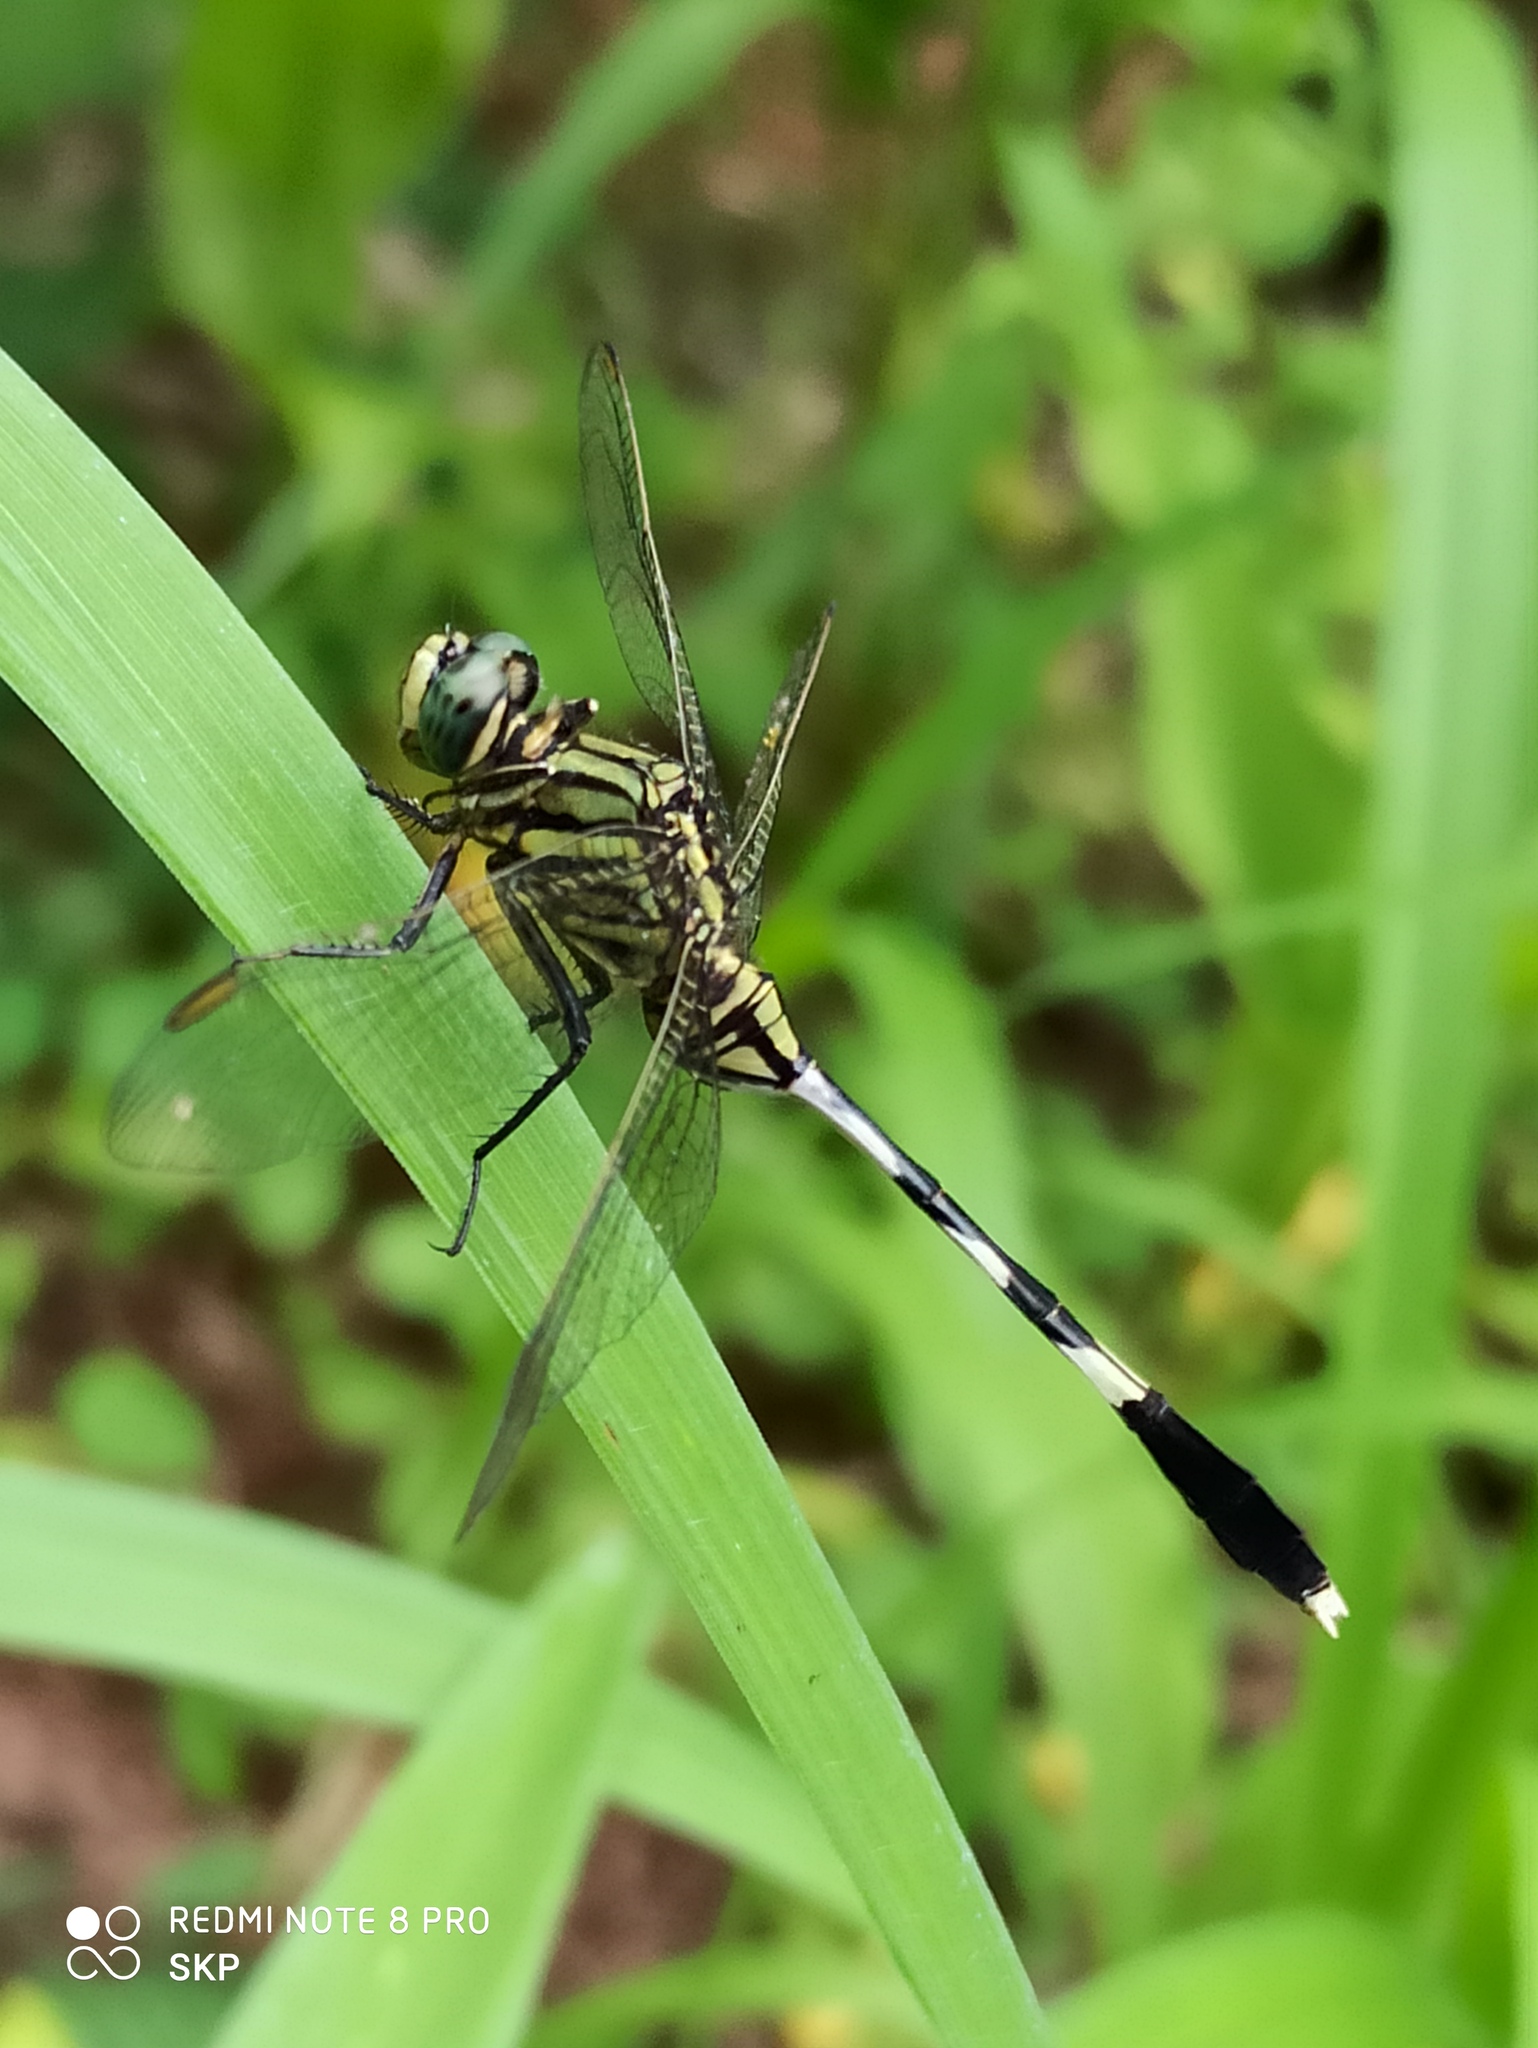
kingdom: Animalia
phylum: Arthropoda
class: Insecta
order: Odonata
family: Libellulidae
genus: Orthetrum
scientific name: Orthetrum sabina
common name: Slender skimmer
